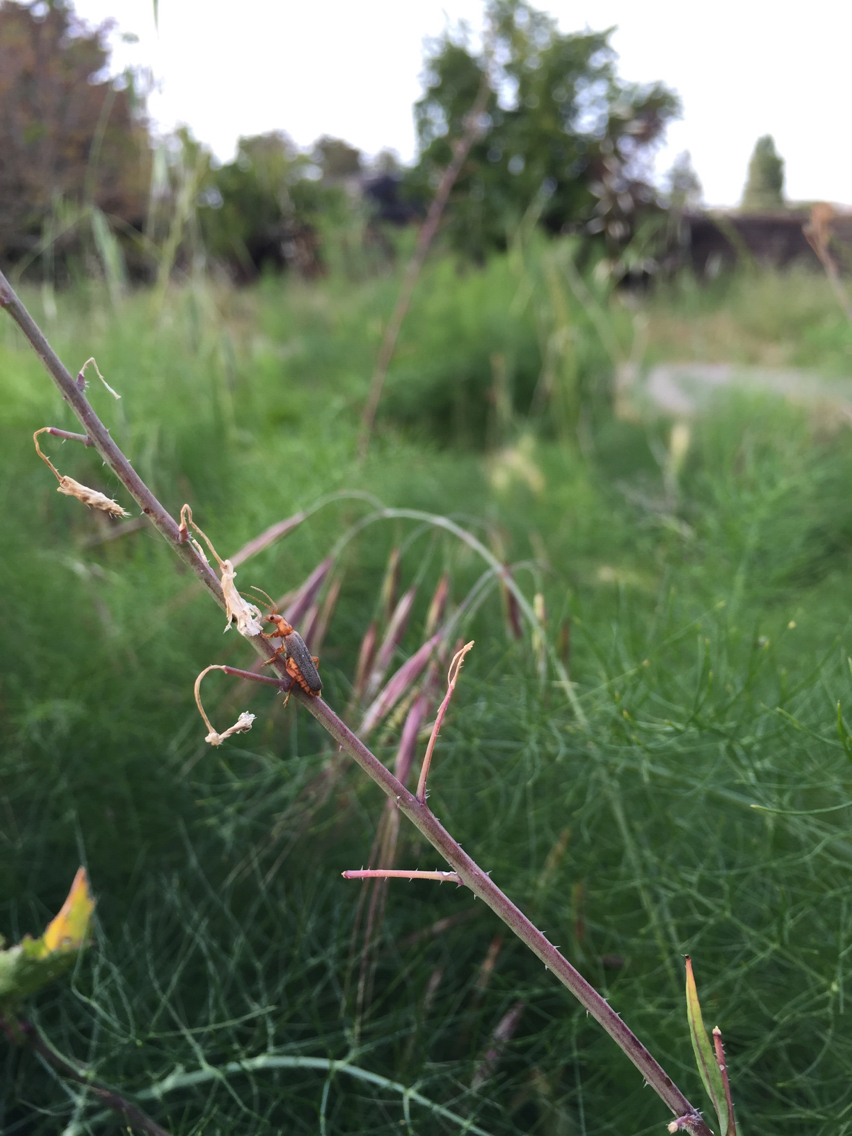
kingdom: Animalia
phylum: Arthropoda
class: Insecta
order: Coleoptera
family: Cantharidae
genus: Cultellunguis
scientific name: Cultellunguis americanus
